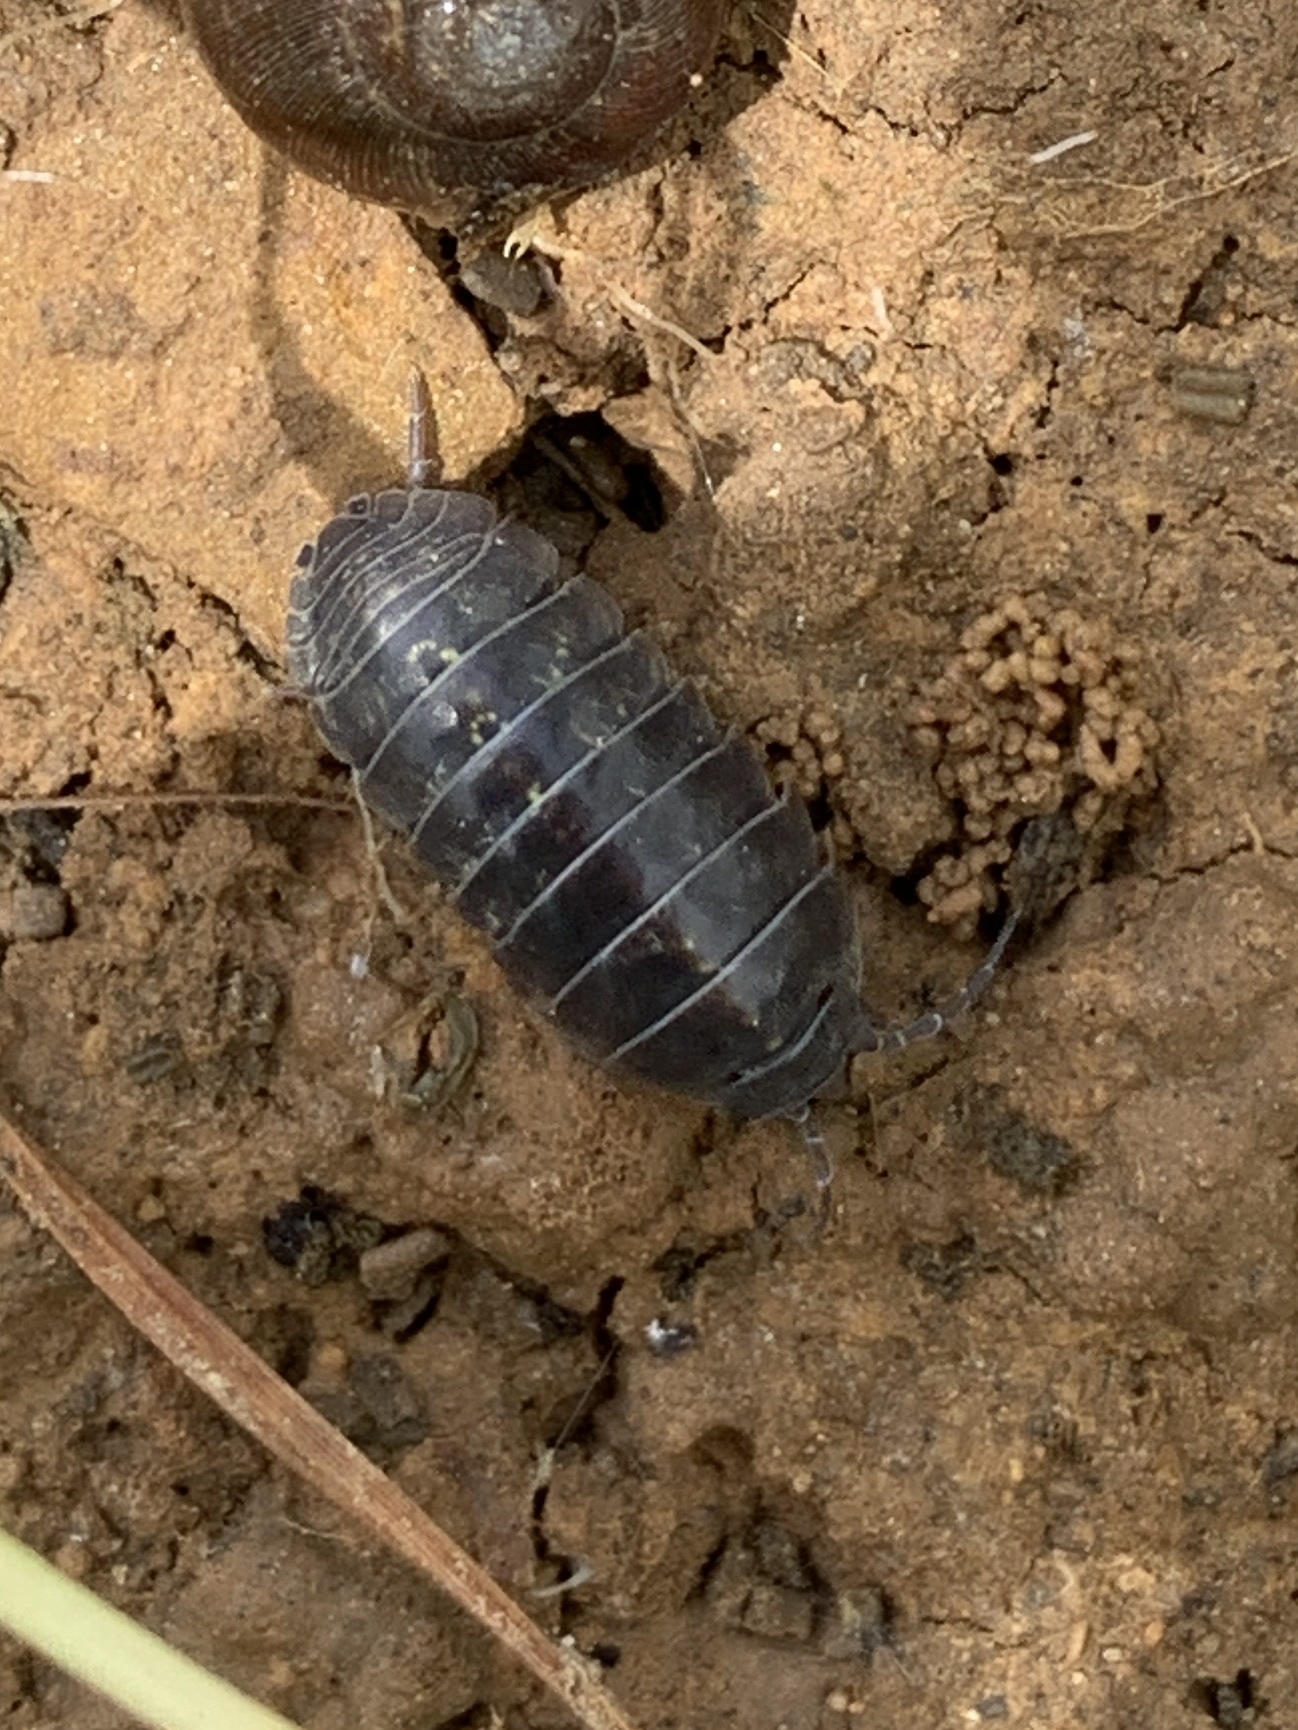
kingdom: Animalia
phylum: Arthropoda
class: Malacostraca
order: Isopoda
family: Armadillidiidae
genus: Armadillidium
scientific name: Armadillidium vulgare
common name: Common pill woodlouse
